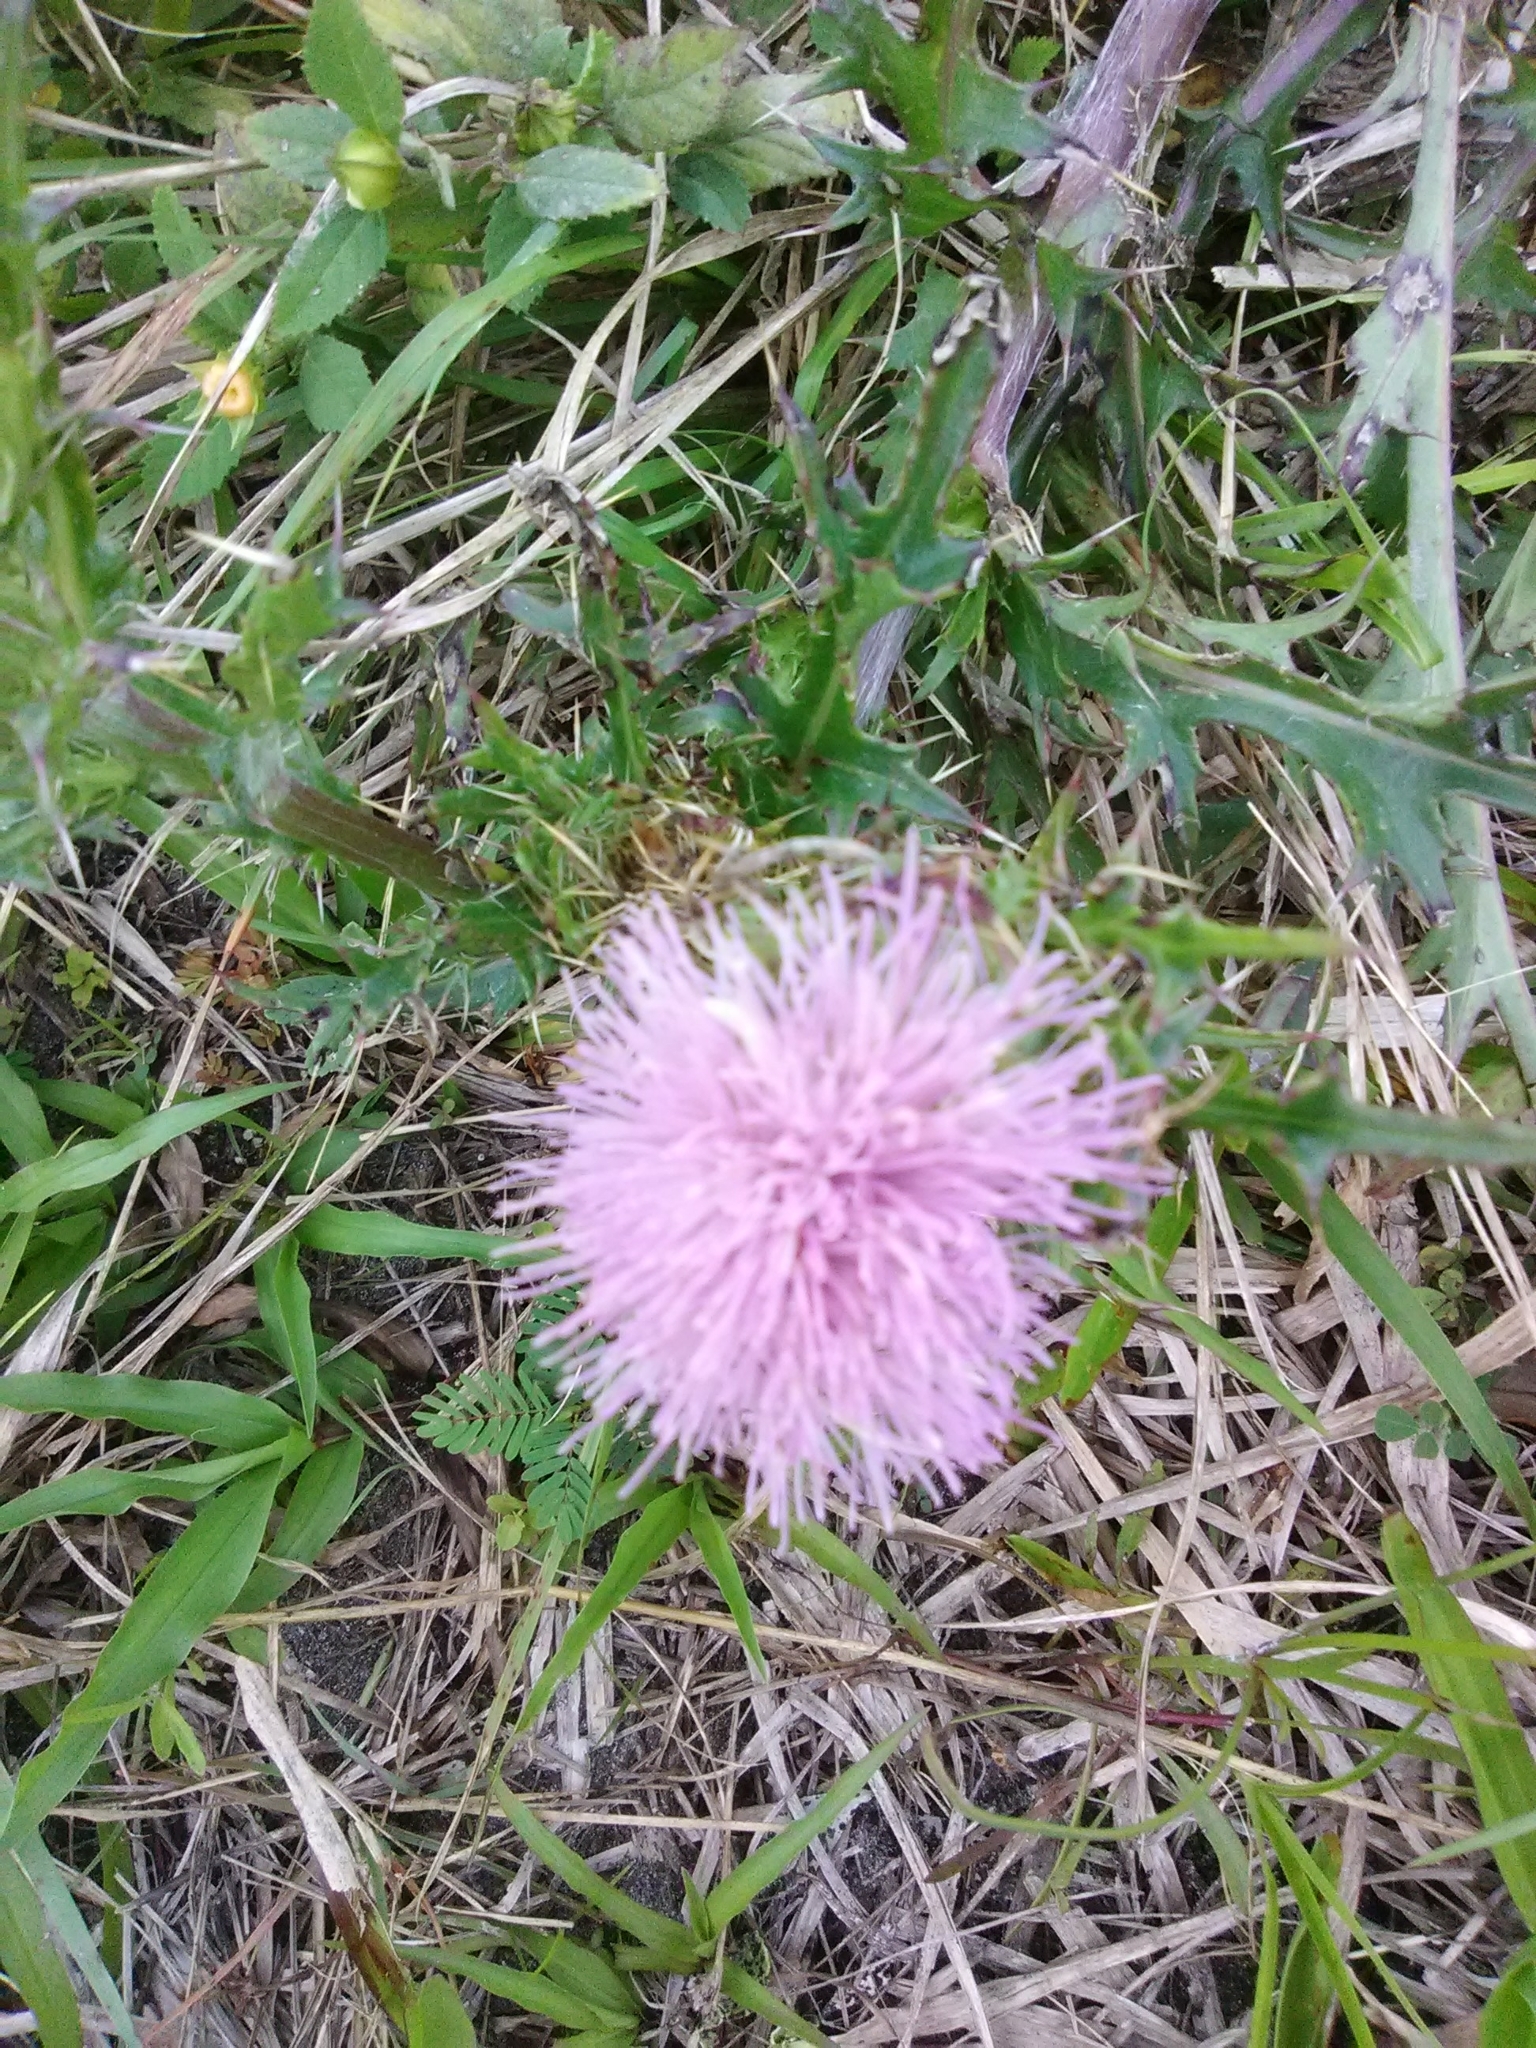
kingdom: Plantae
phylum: Tracheophyta
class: Magnoliopsida
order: Asterales
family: Asteraceae
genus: Cirsium
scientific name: Cirsium horridulum
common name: Bristly thistle
